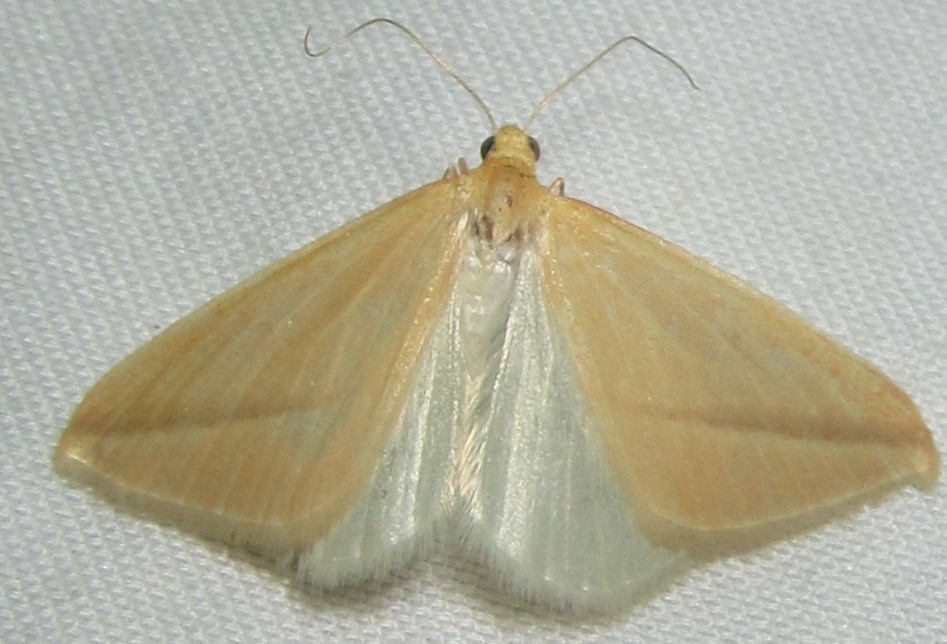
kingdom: Animalia
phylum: Arthropoda
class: Insecta
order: Lepidoptera
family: Geometridae
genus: Rhodometra
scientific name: Rhodometra sacraria
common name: Vestal
